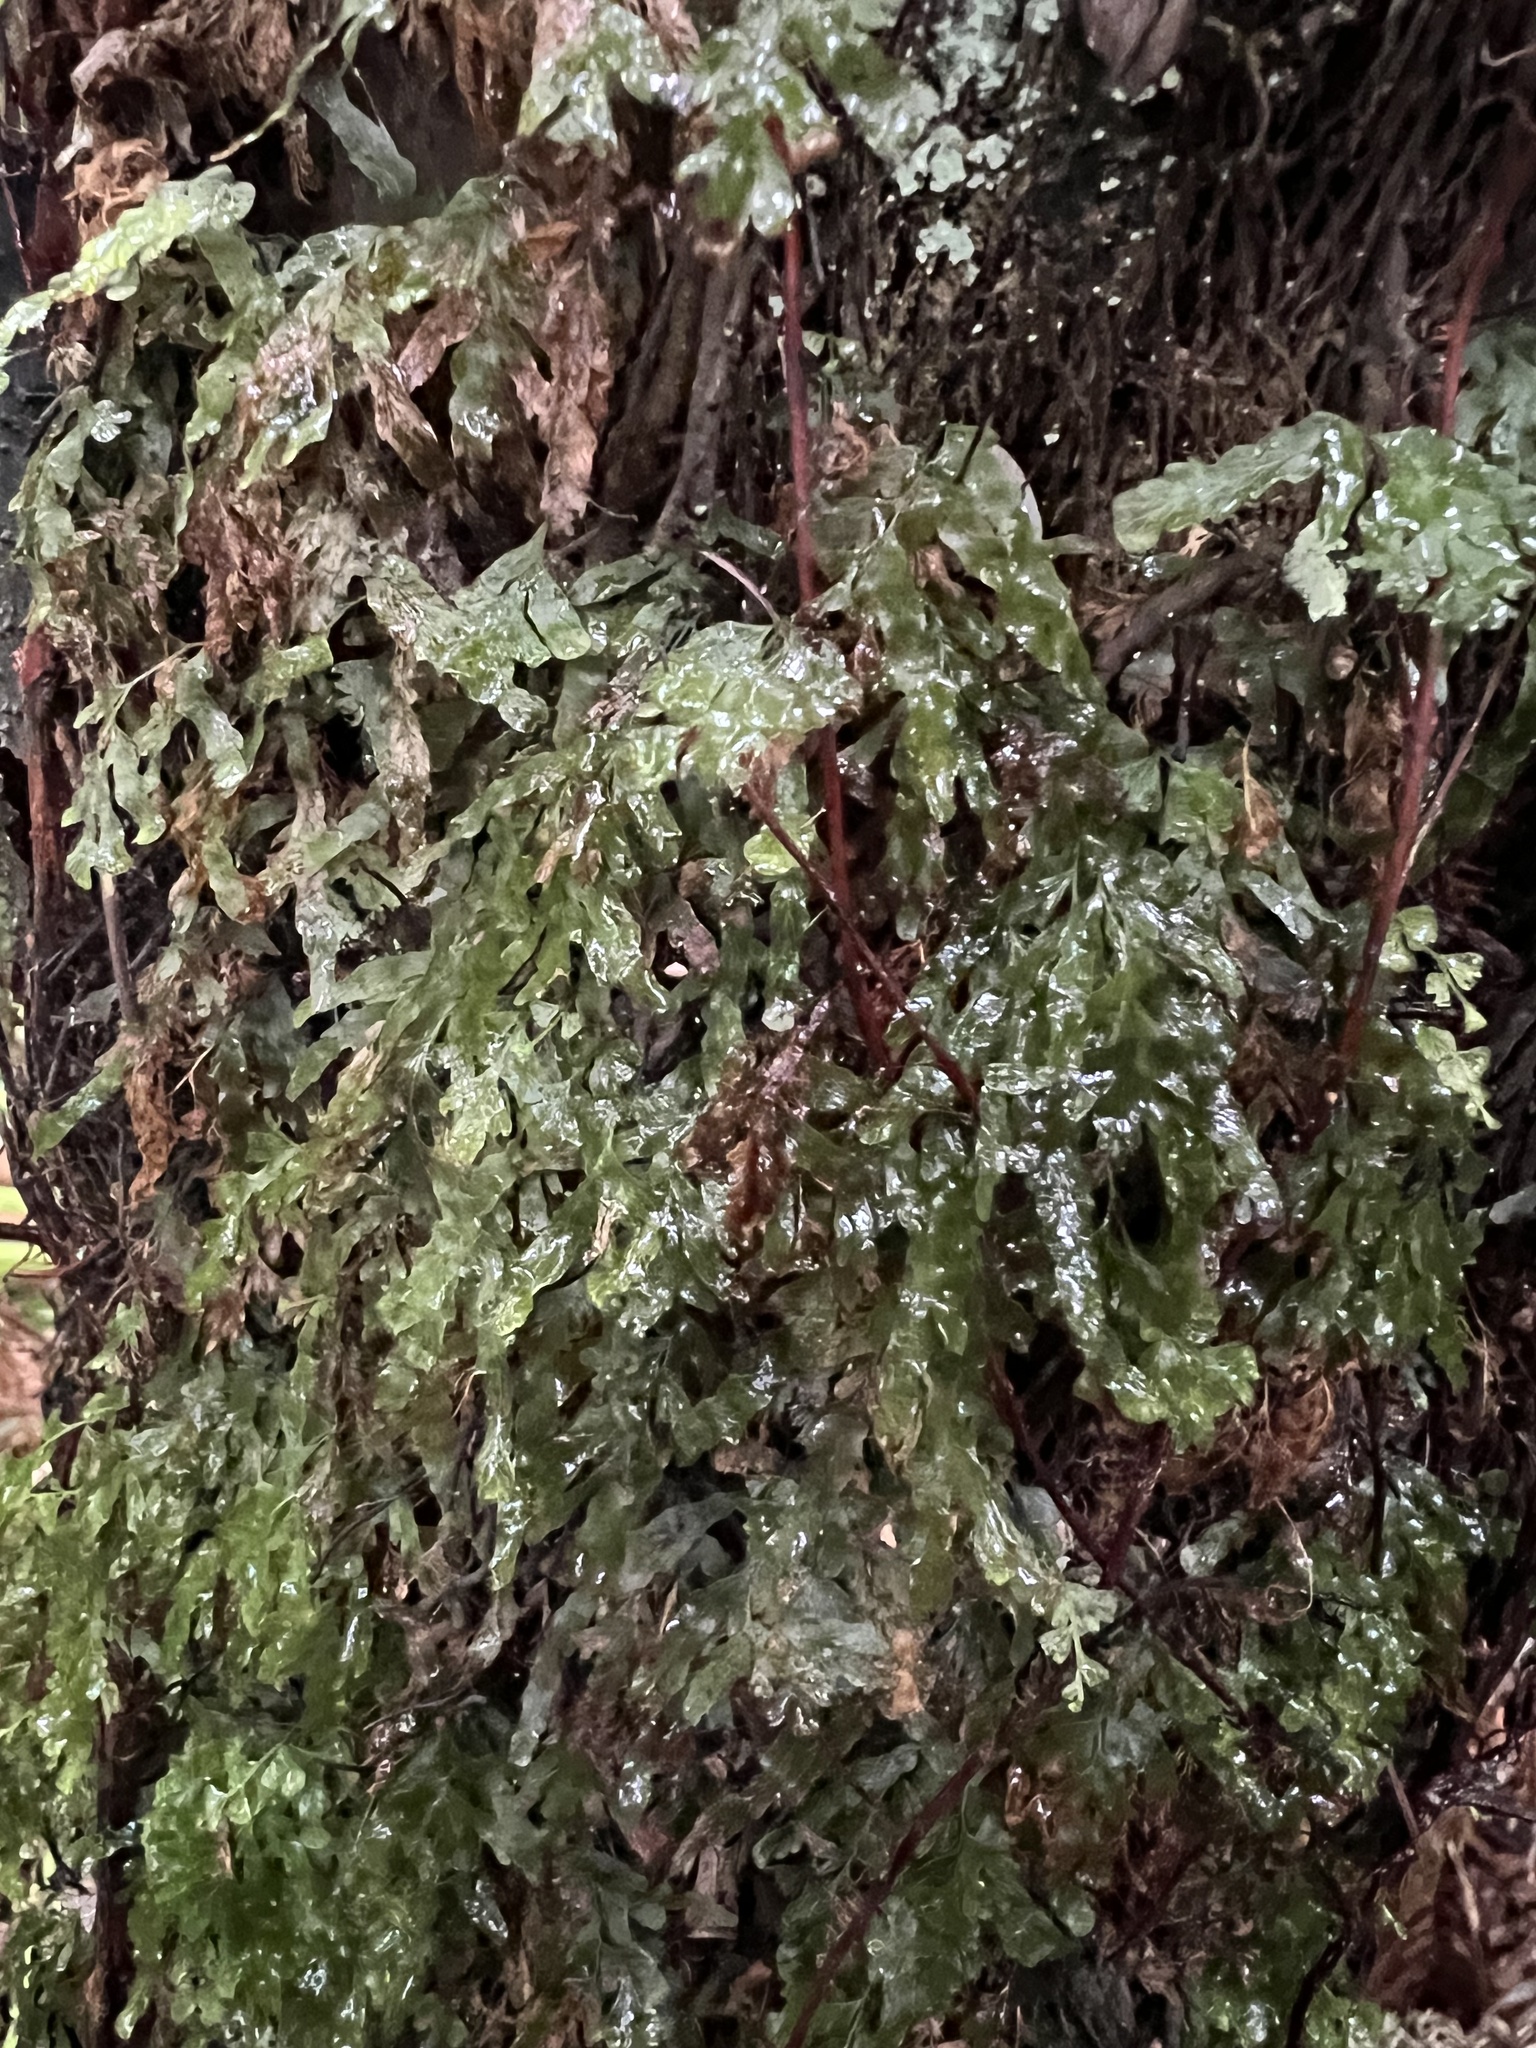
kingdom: Plantae
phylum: Tracheophyta
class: Polypodiopsida
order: Hymenophyllales
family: Hymenophyllaceae
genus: Polyphlebium
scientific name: Polyphlebium venosum
